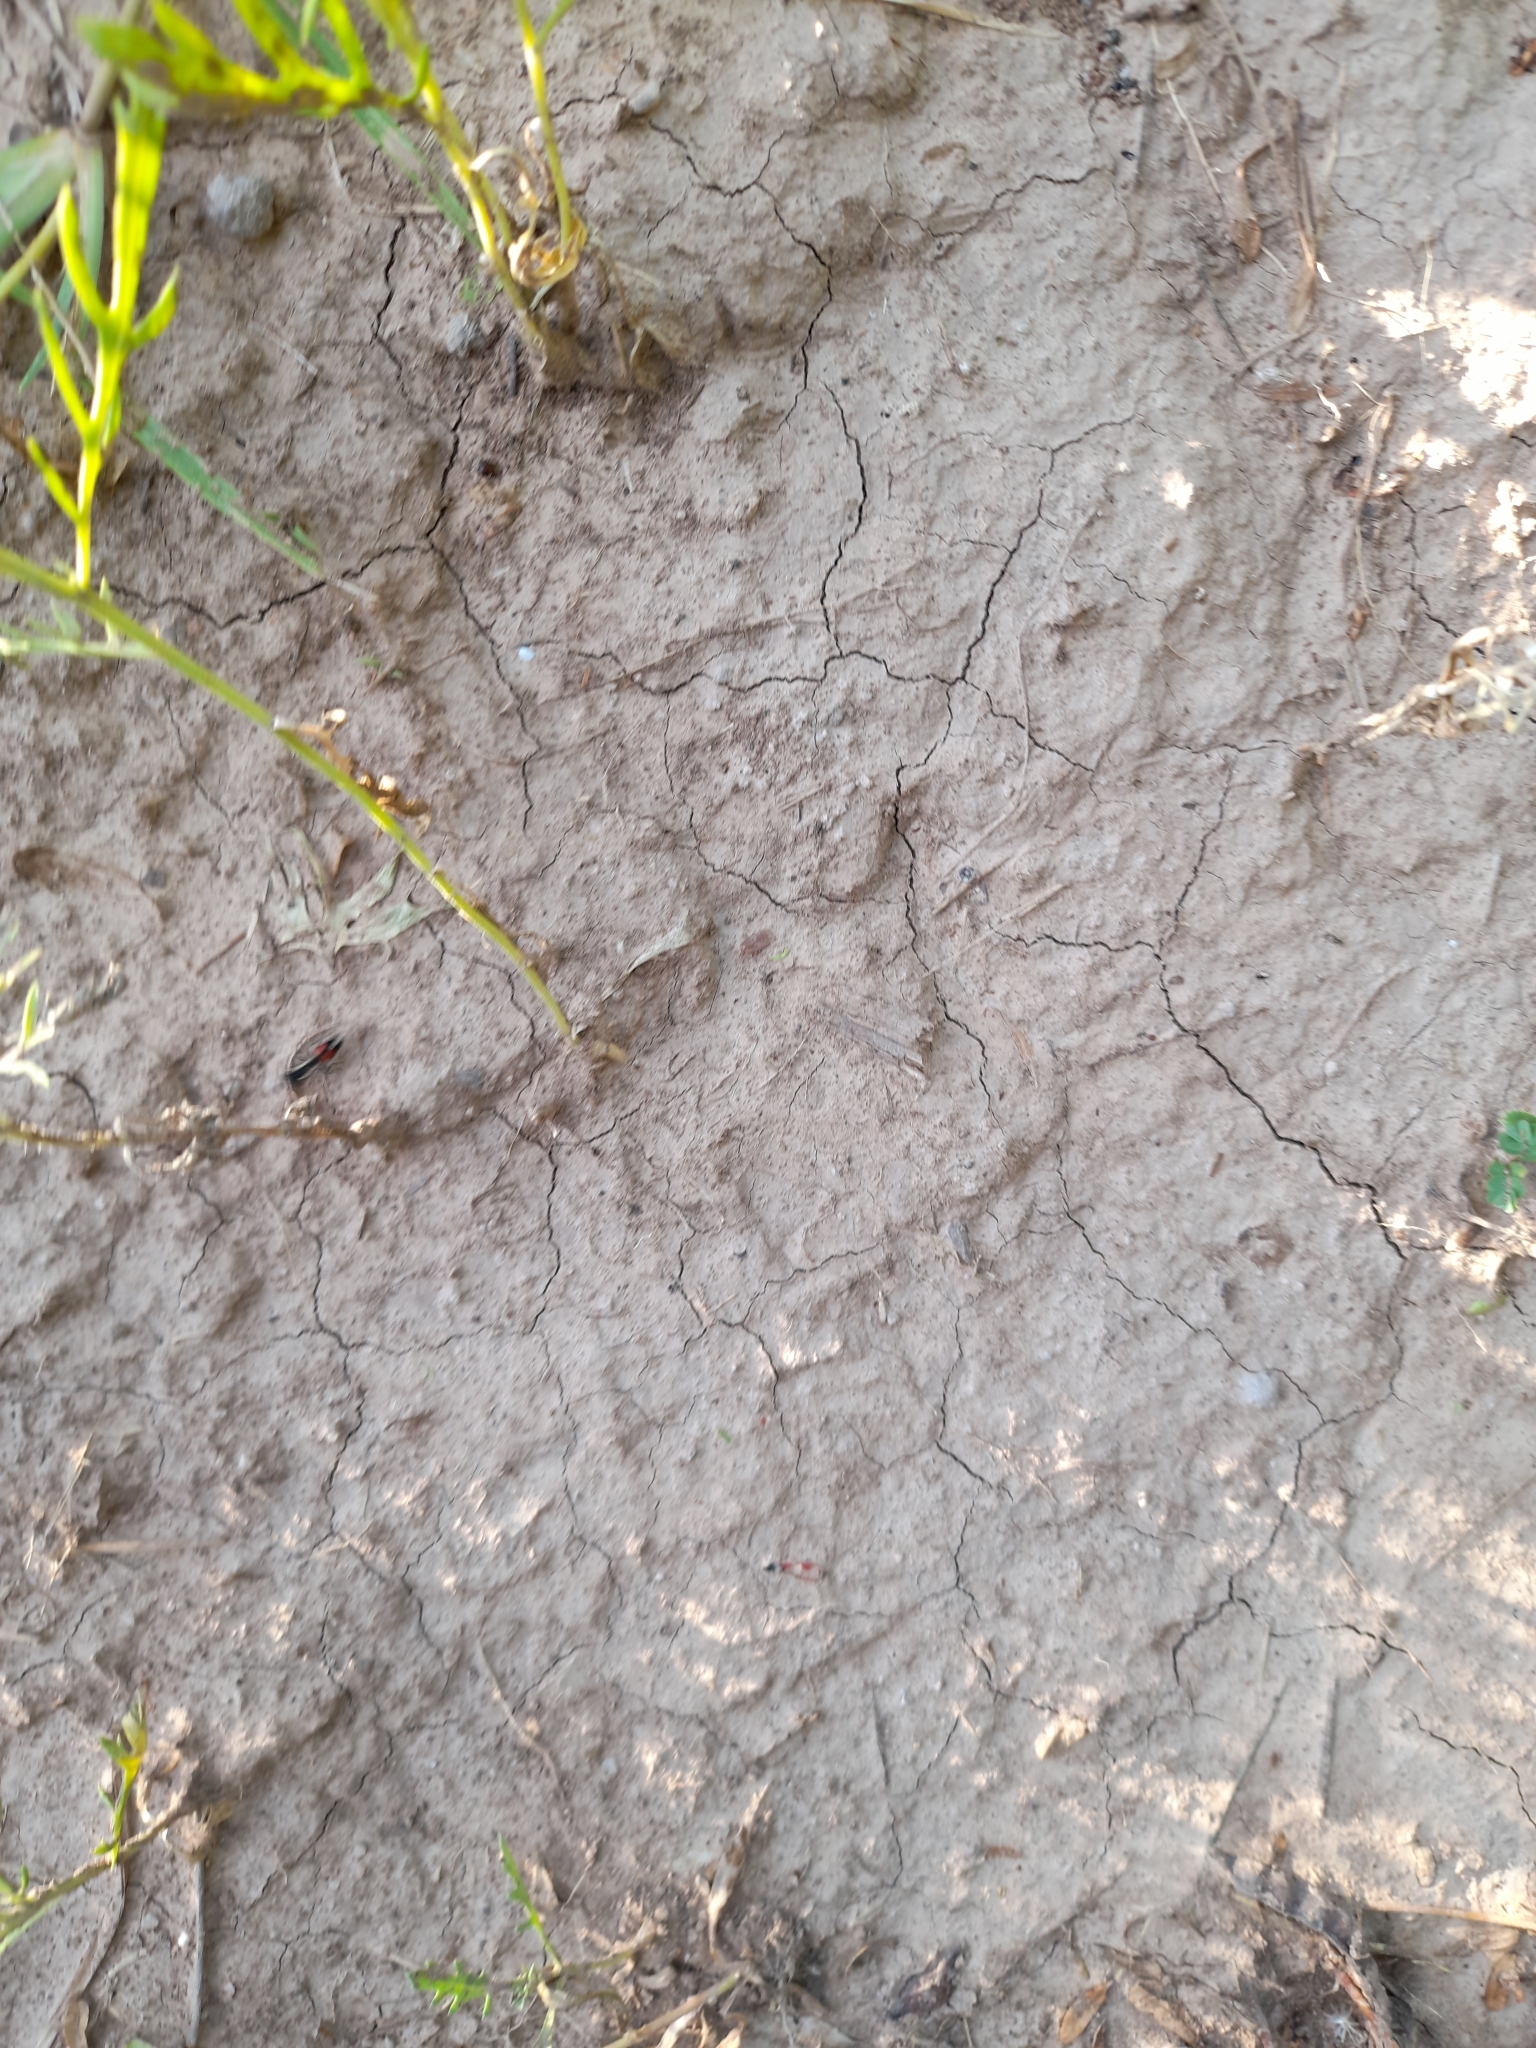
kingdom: Animalia
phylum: Arthropoda
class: Insecta
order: Hymenoptera
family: Mutillidae
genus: Darditilla
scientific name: Darditilla
